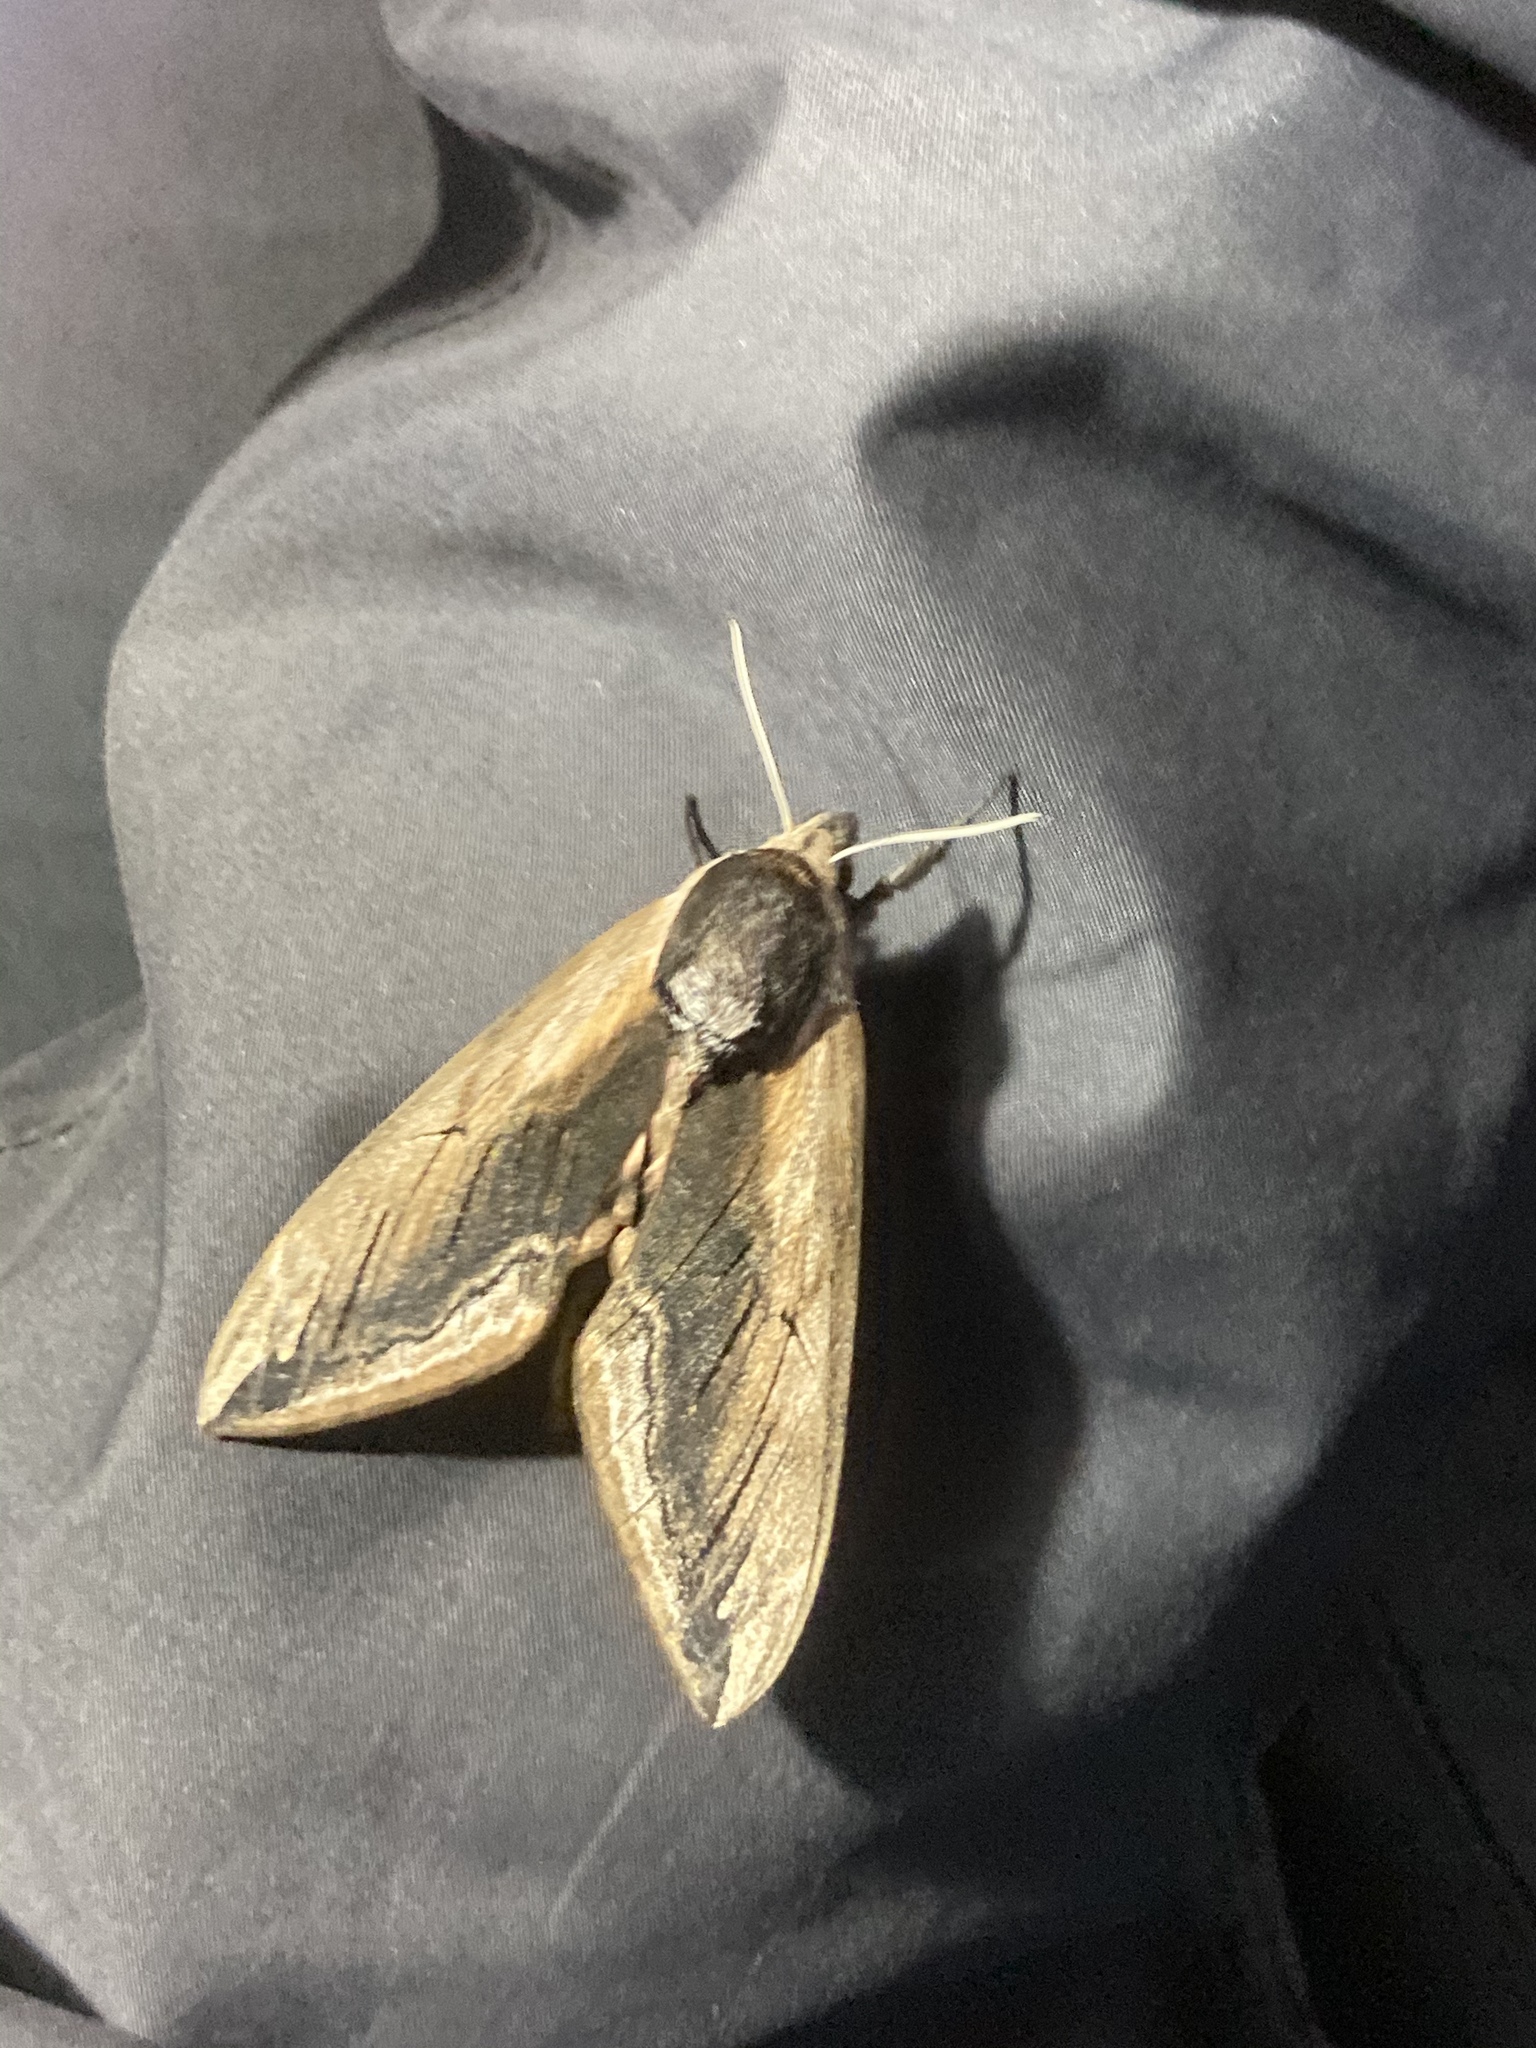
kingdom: Animalia
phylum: Arthropoda
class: Insecta
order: Lepidoptera
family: Sphingidae
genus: Sphinx
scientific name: Sphinx ligustri
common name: Privet hawk-moth
